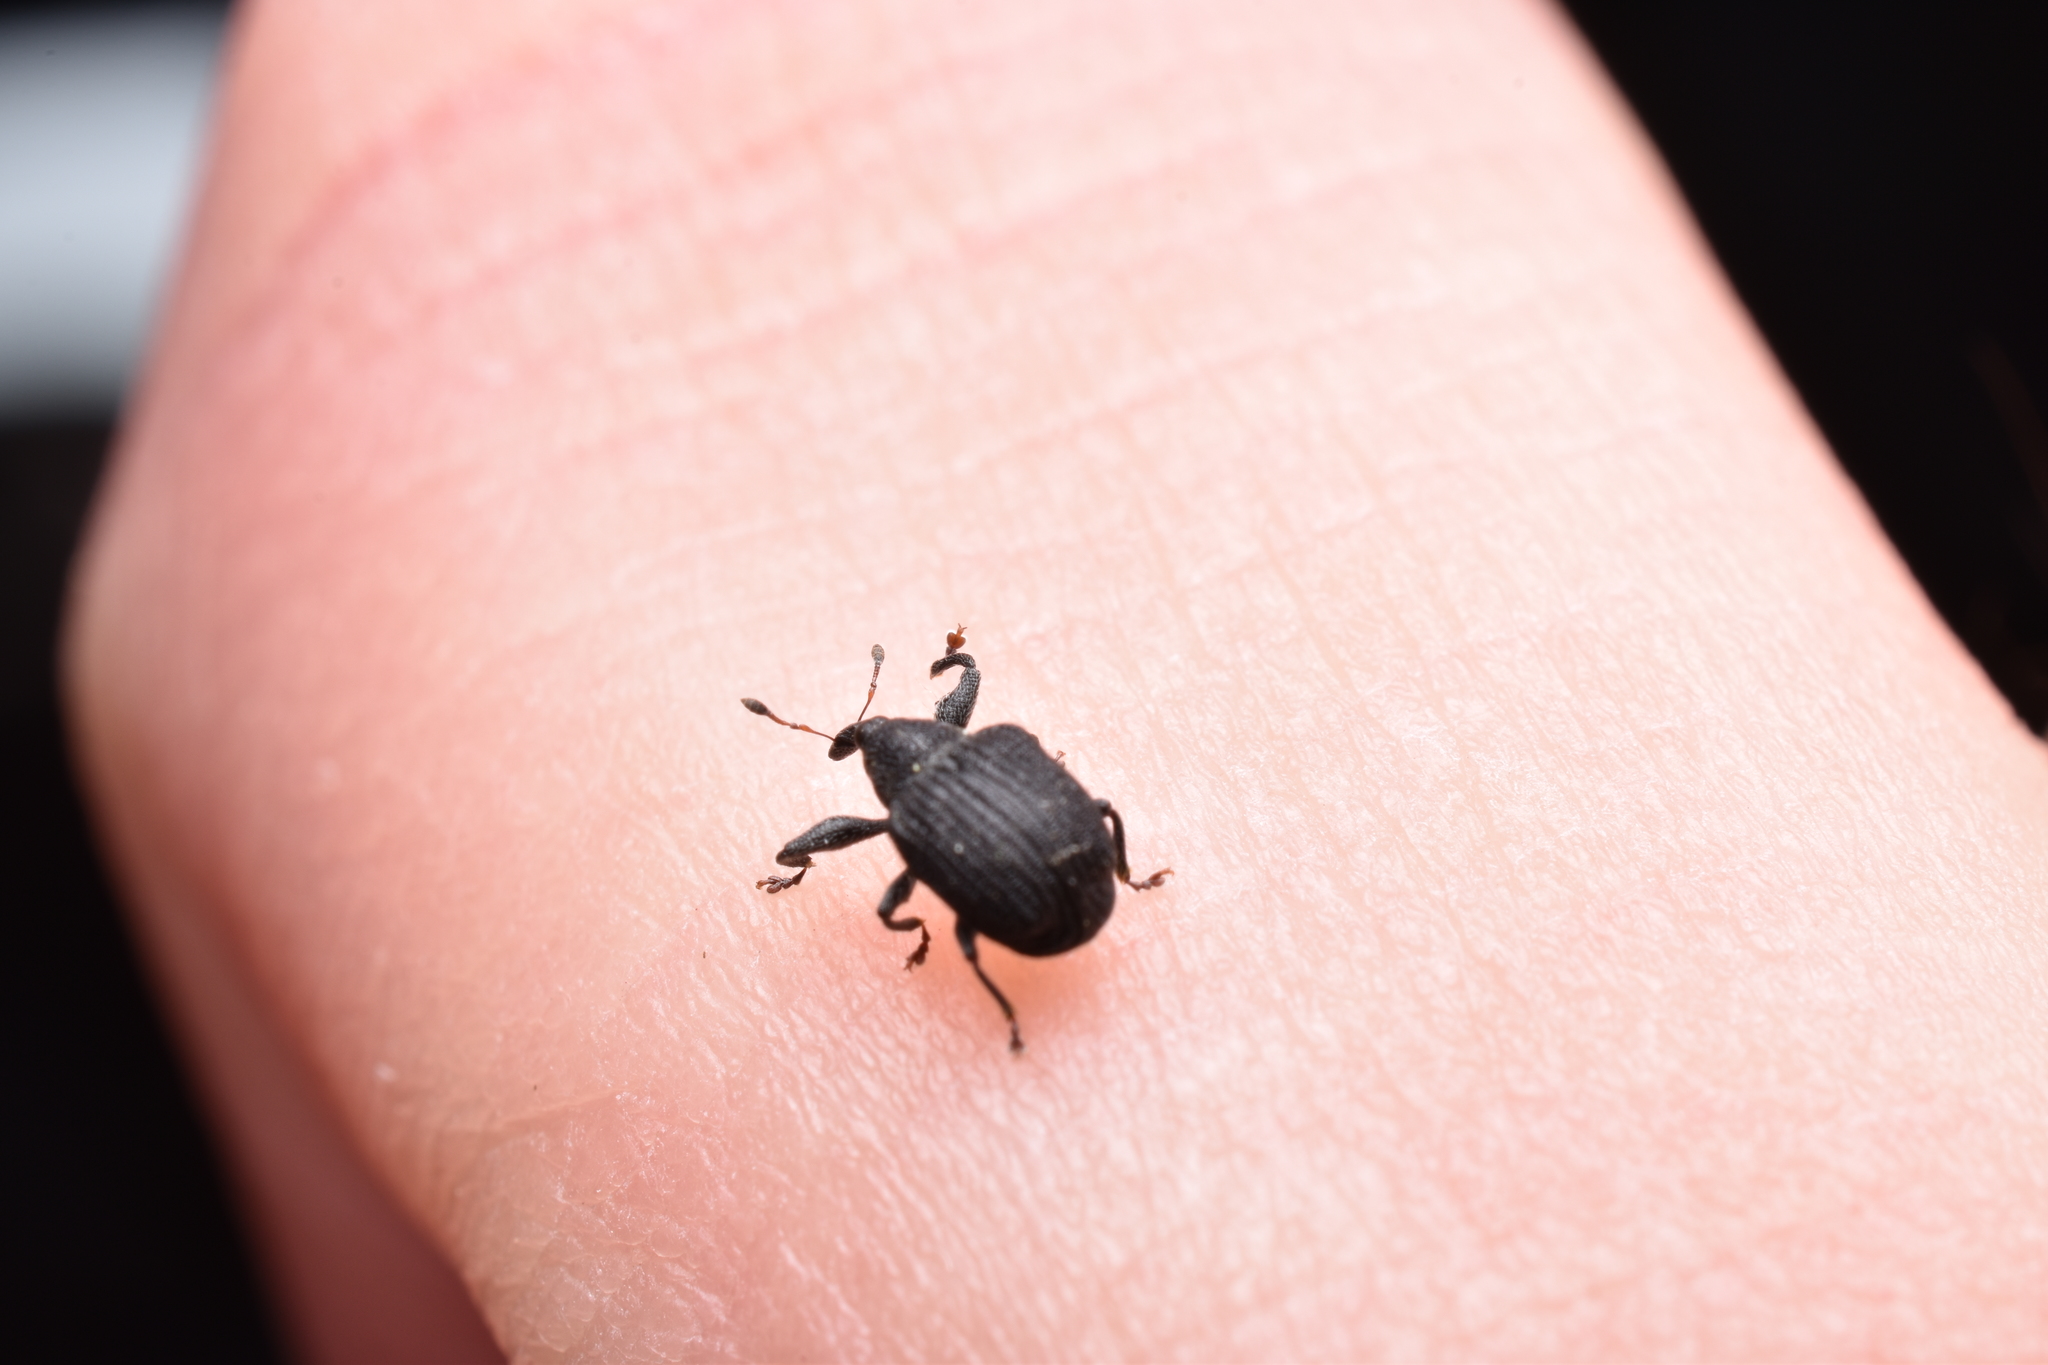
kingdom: Animalia
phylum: Arthropoda
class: Insecta
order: Coleoptera
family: Curculionidae
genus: Odontopus
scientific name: Odontopus calceatus
